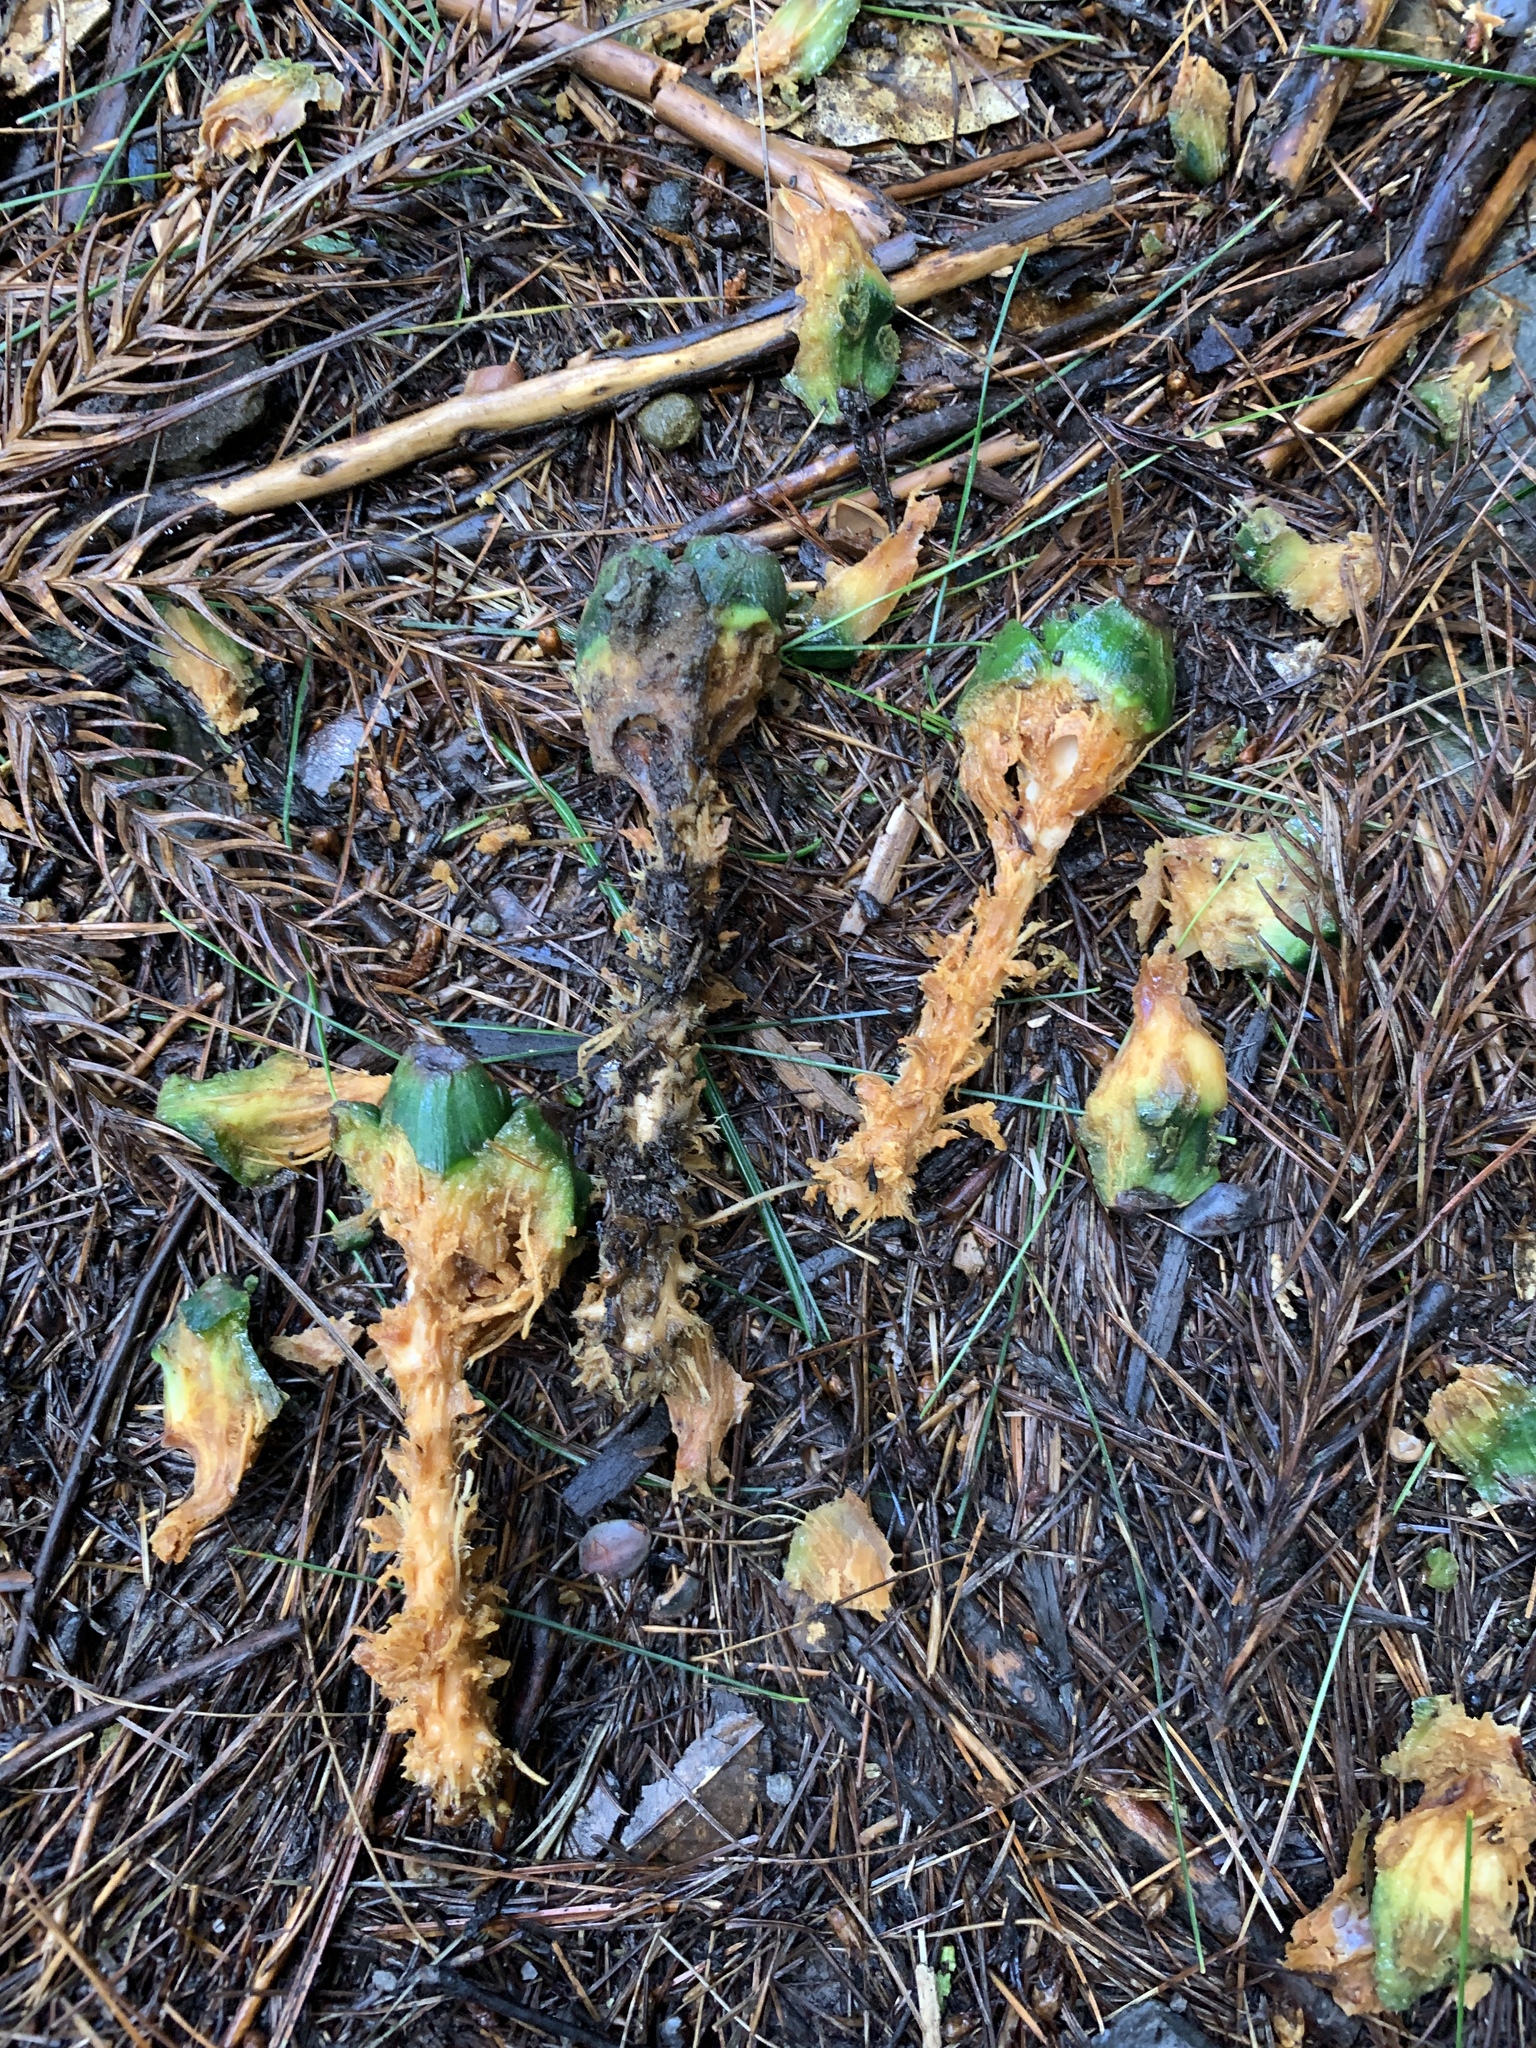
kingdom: Plantae
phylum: Tracheophyta
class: Pinopsida
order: Pinales
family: Pinaceae
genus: Pinus
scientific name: Pinus armandii
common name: Armand's pine
